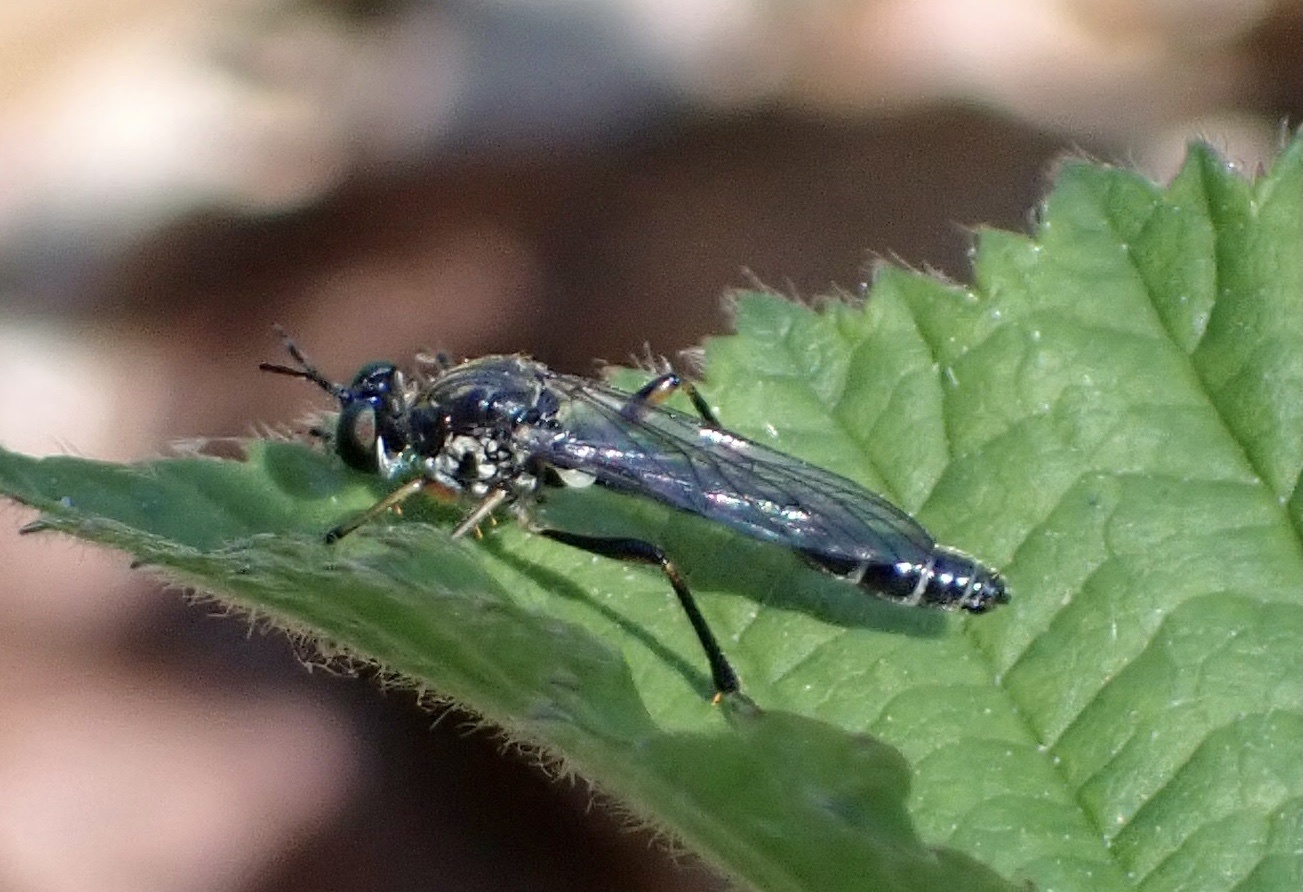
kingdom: Animalia
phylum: Arthropoda
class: Insecta
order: Diptera
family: Asilidae
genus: Dioctria
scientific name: Dioctria hyalipennis
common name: Stripe-legged robberfly
